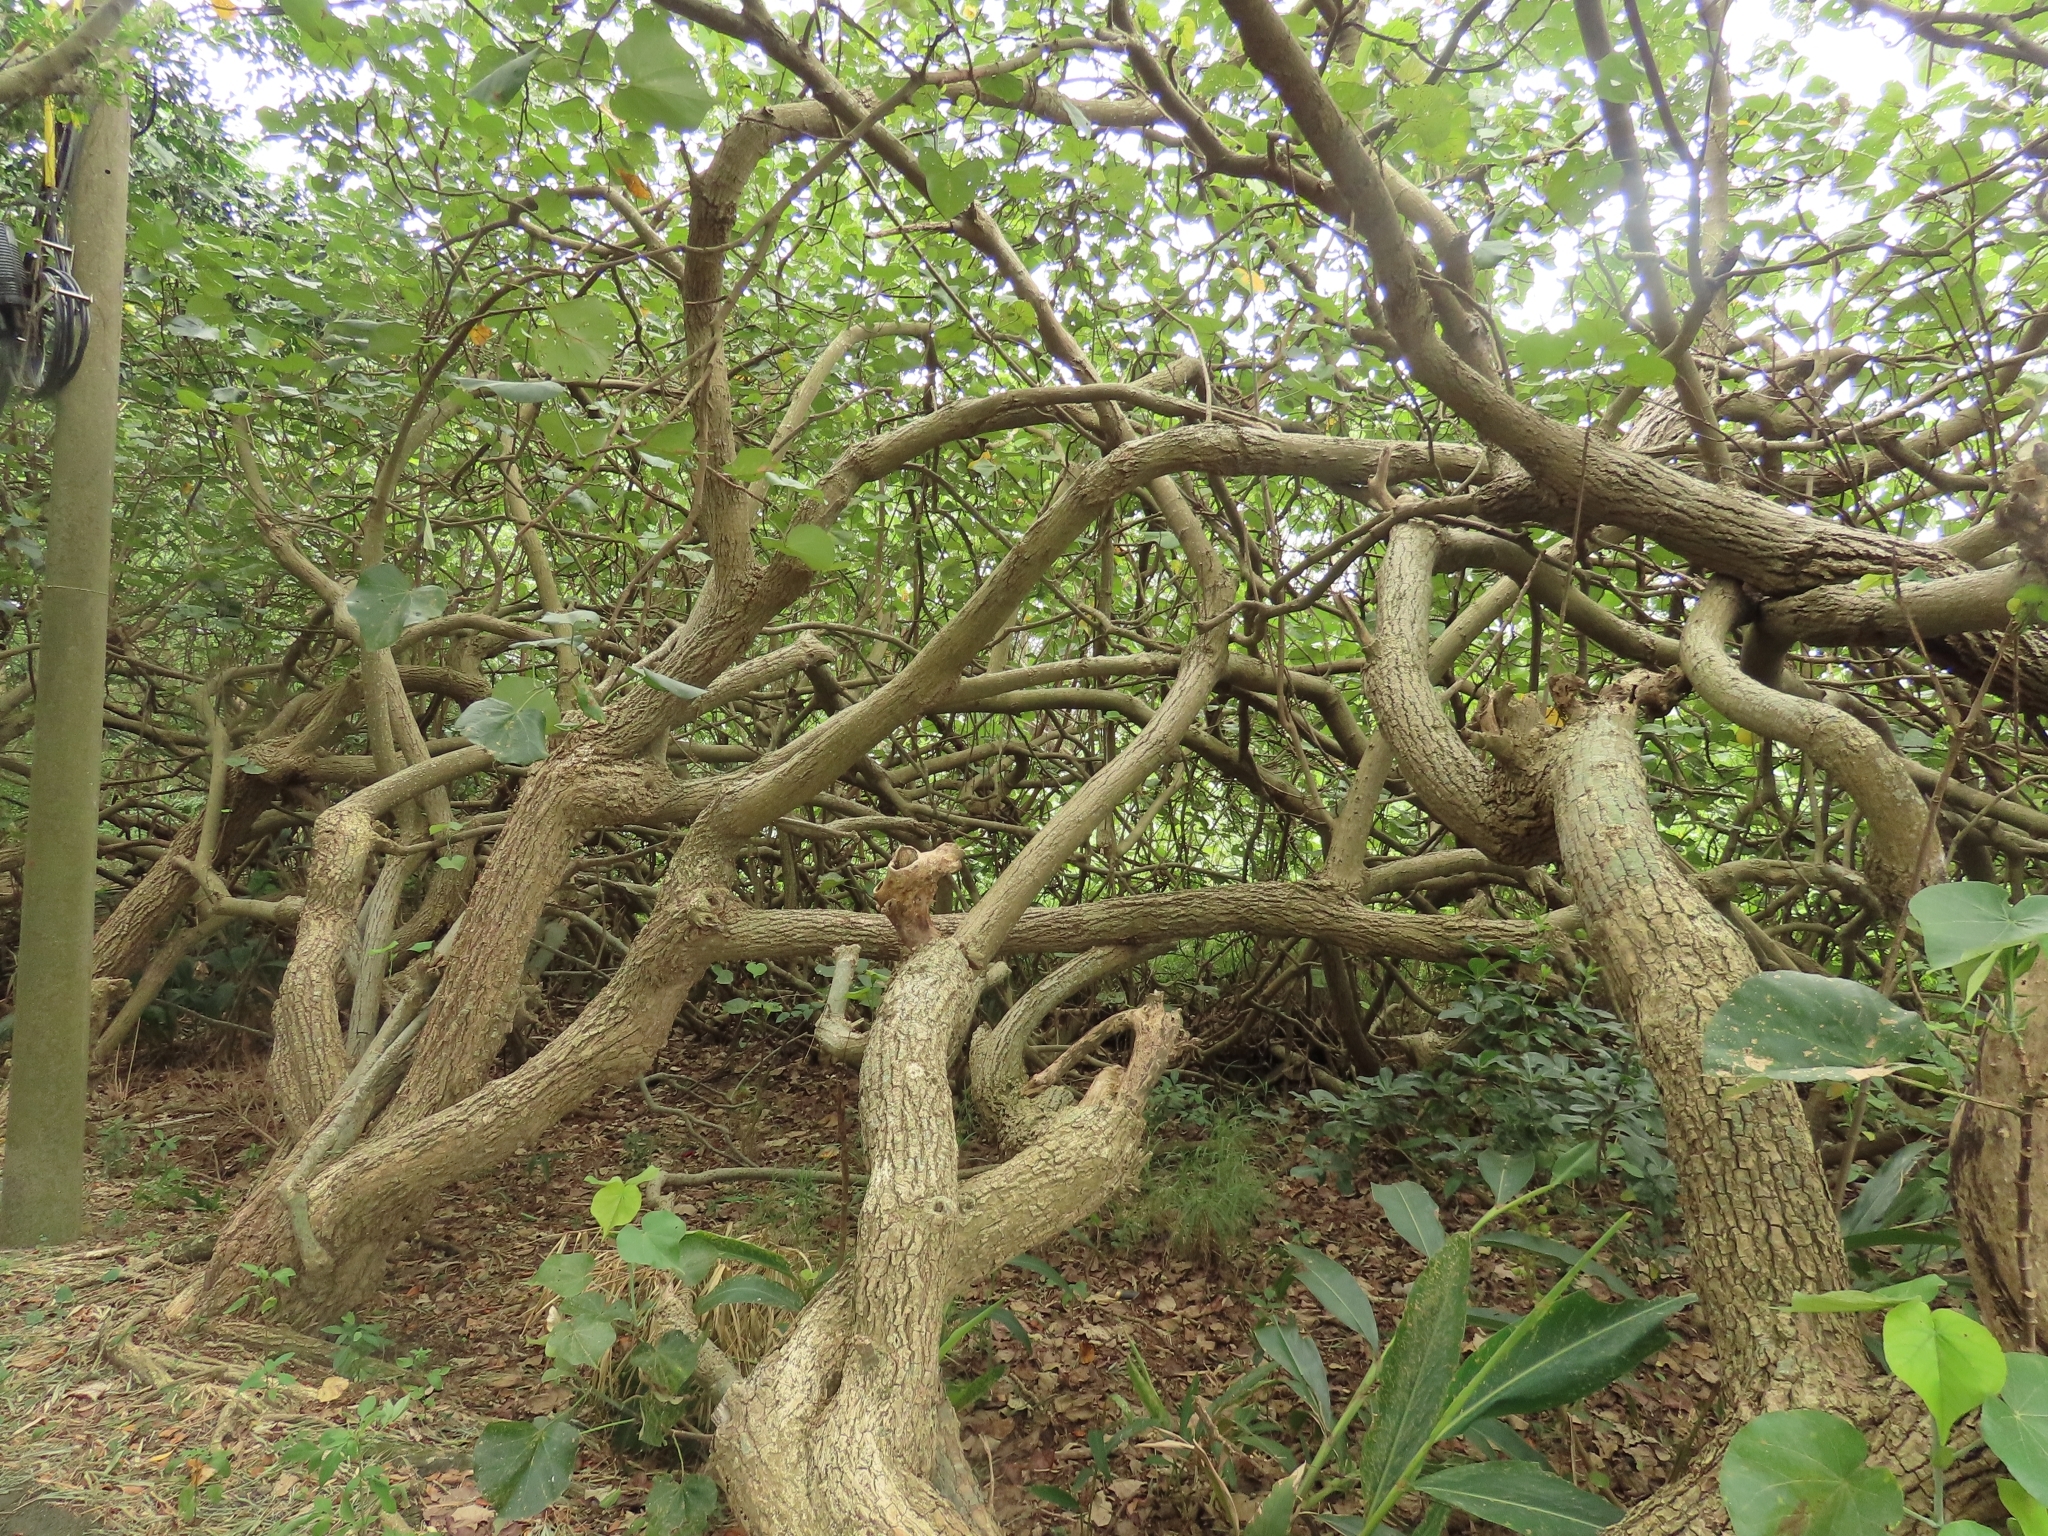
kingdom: Plantae
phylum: Tracheophyta
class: Magnoliopsida
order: Malvales
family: Malvaceae
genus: Talipariti
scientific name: Talipariti tiliaceum
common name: Sea hibiscus
